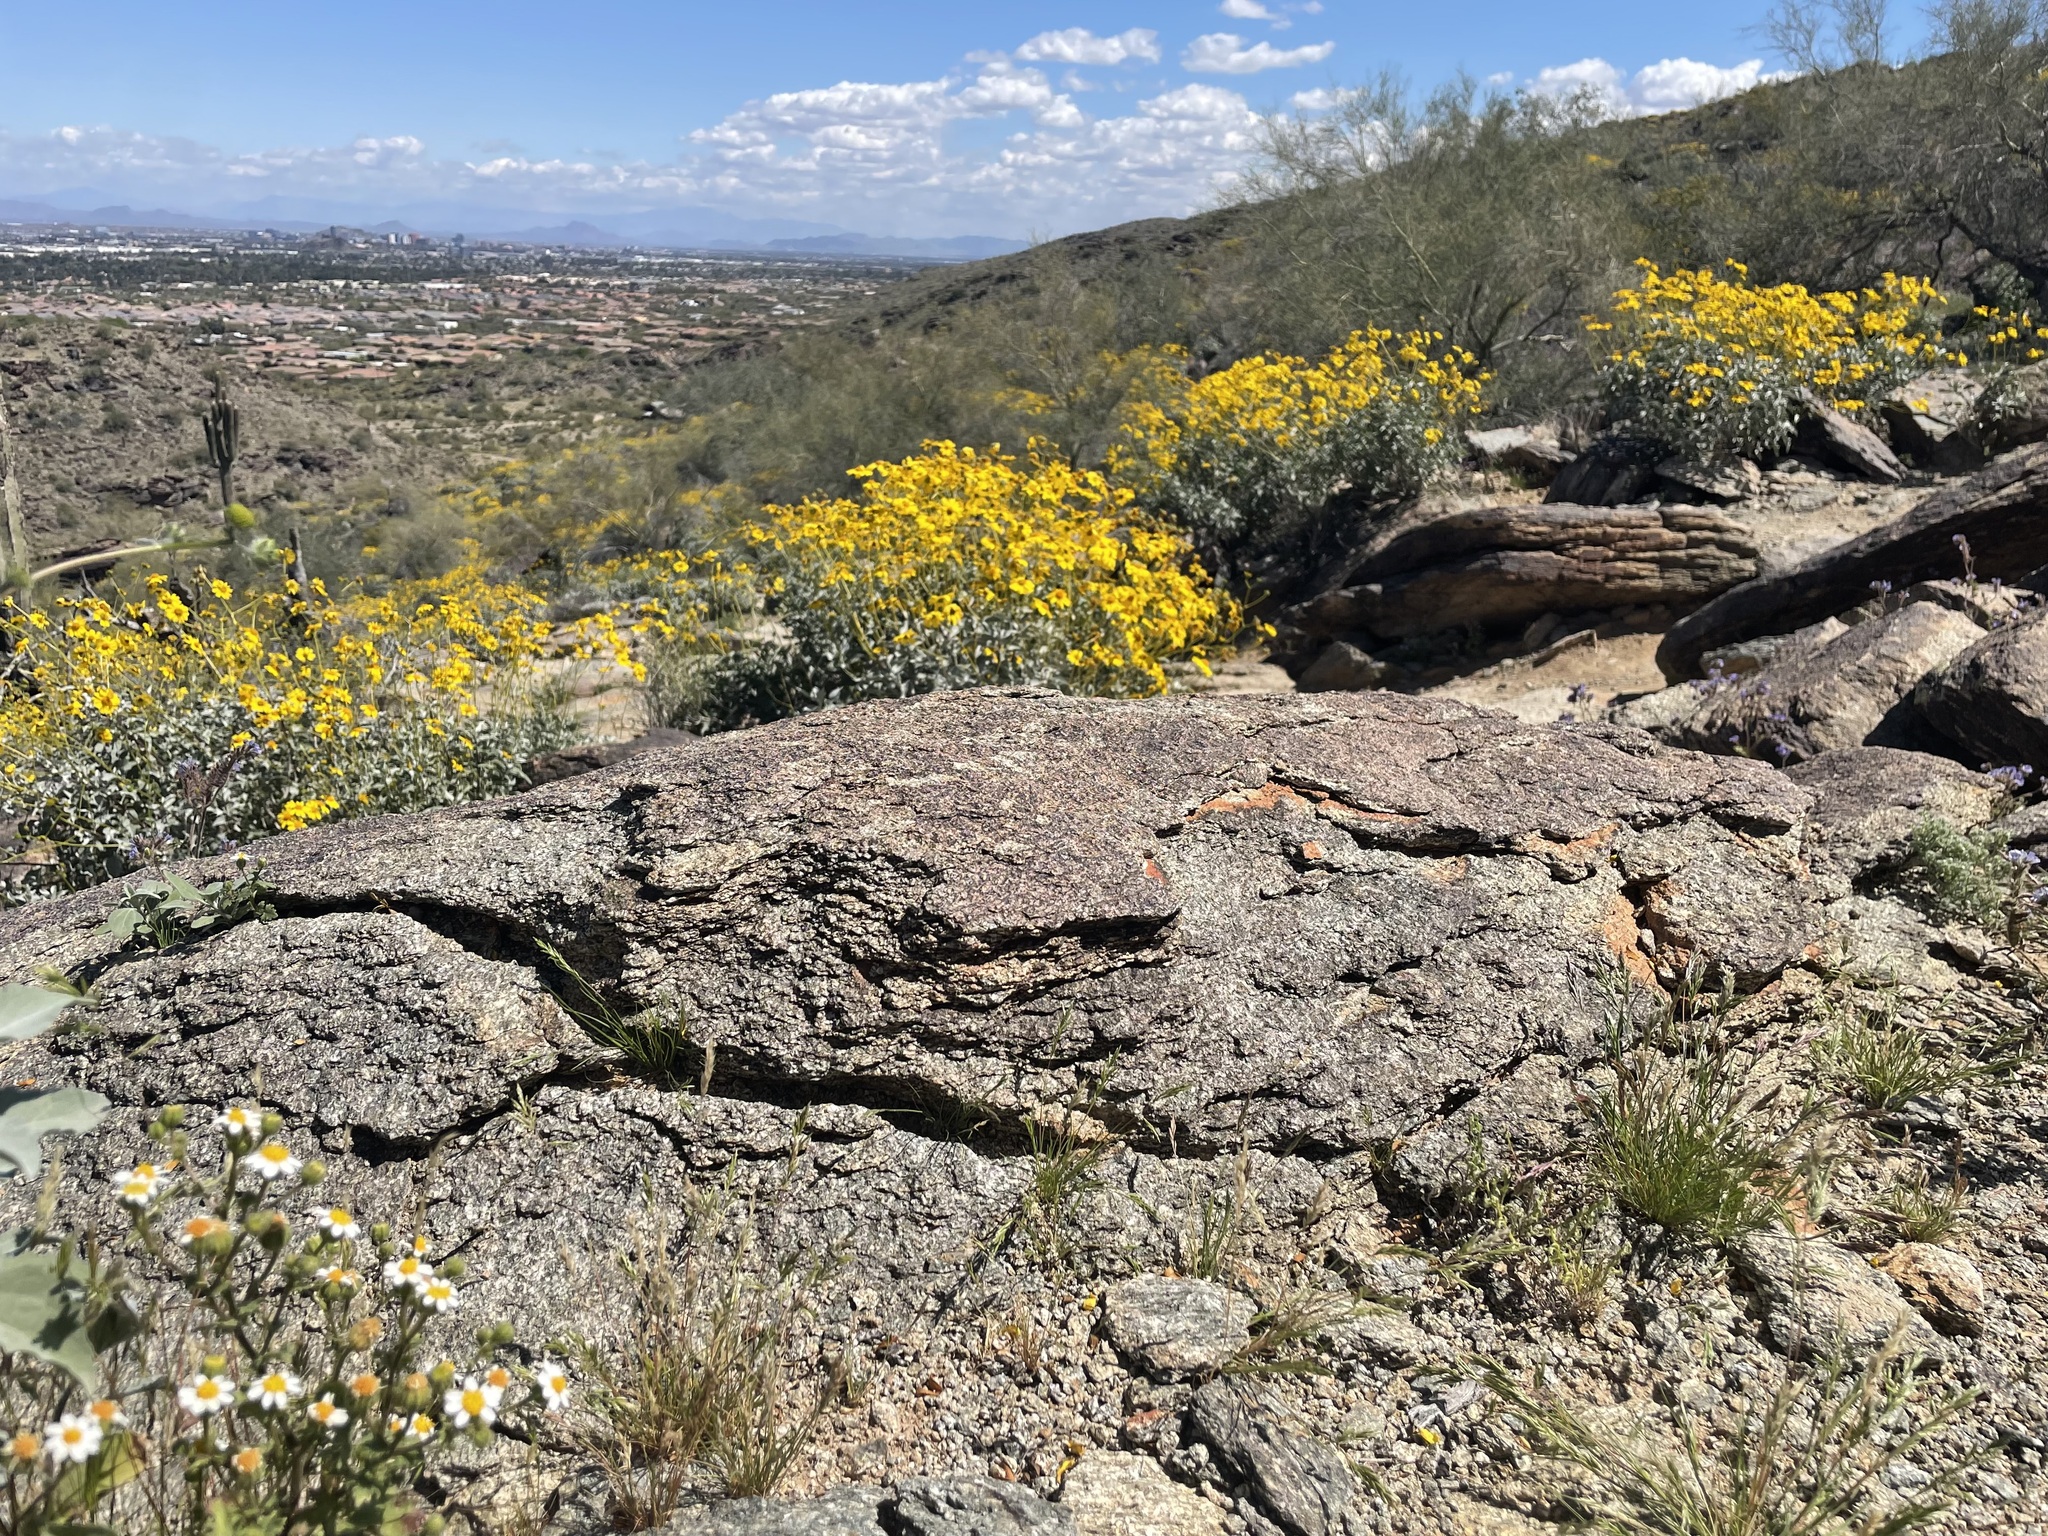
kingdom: Plantae
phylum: Tracheophyta
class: Magnoliopsida
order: Asterales
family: Asteraceae
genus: Laphamia
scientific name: Laphamia emoryi
